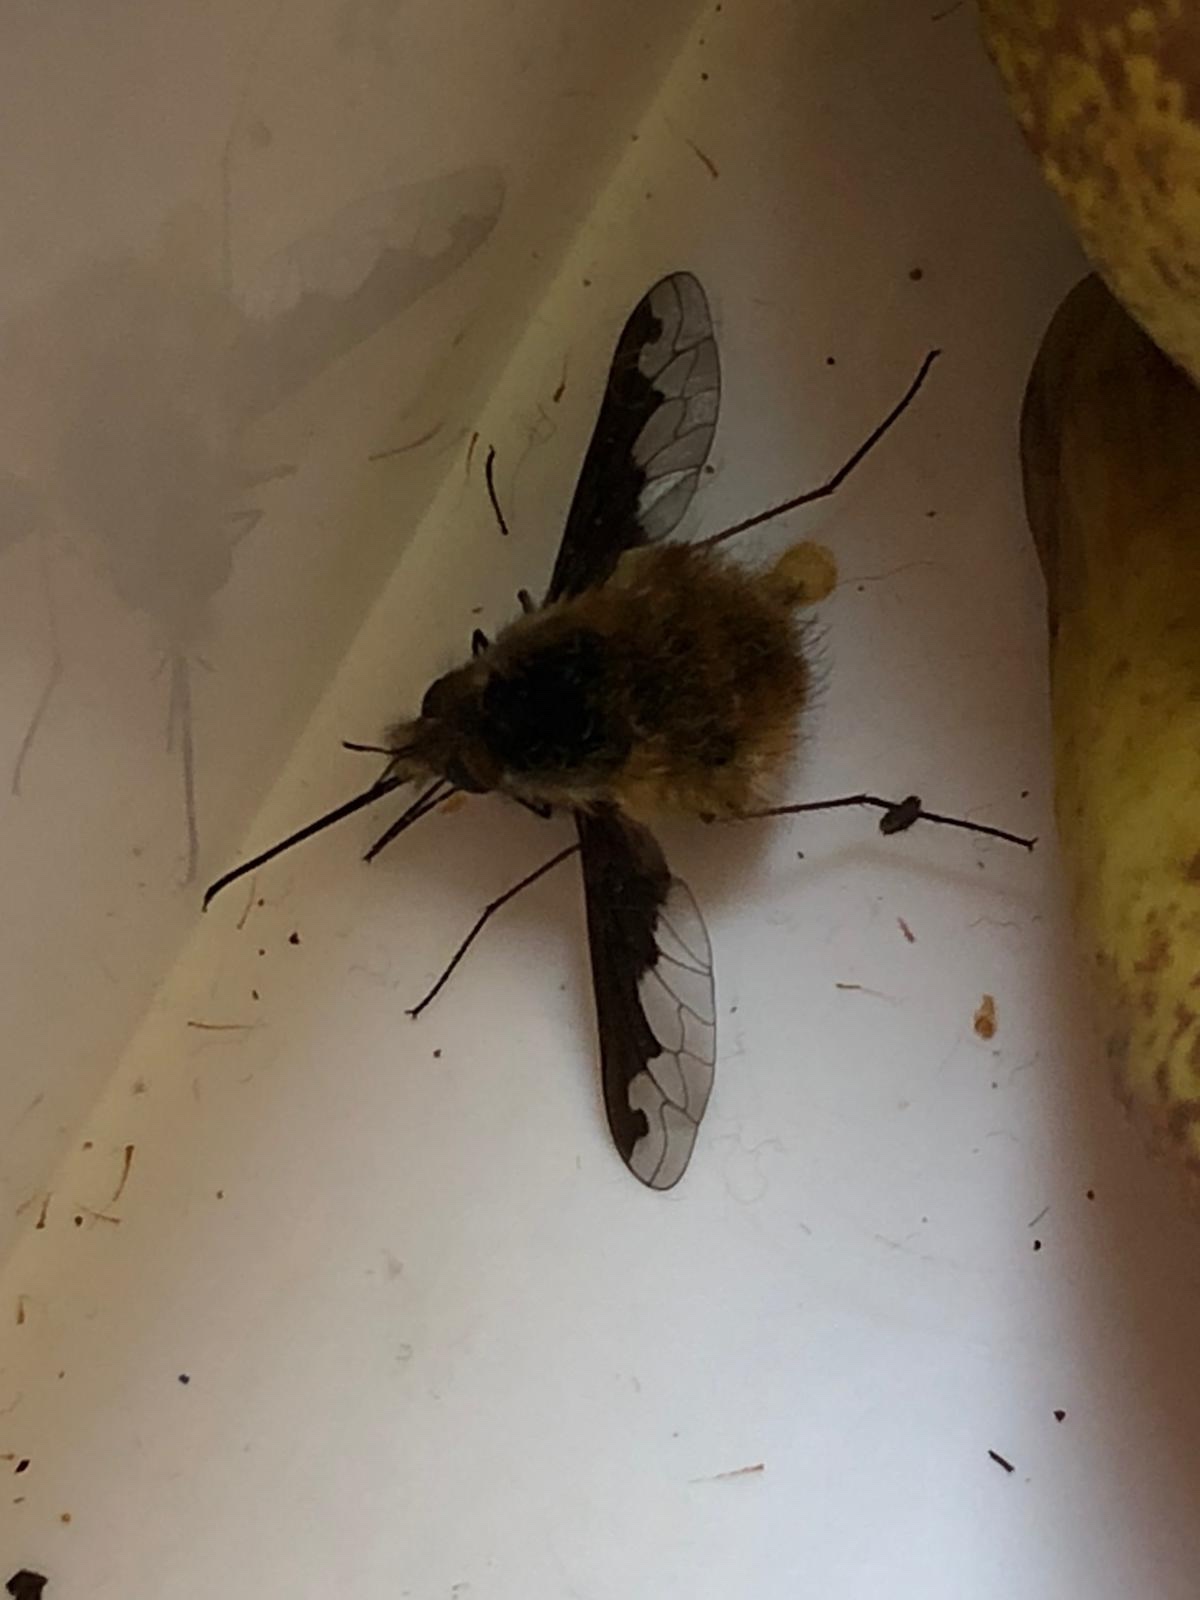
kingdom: Animalia
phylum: Arthropoda
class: Insecta
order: Diptera
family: Bombyliidae
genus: Bombylius
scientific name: Bombylius major
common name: Bee fly
